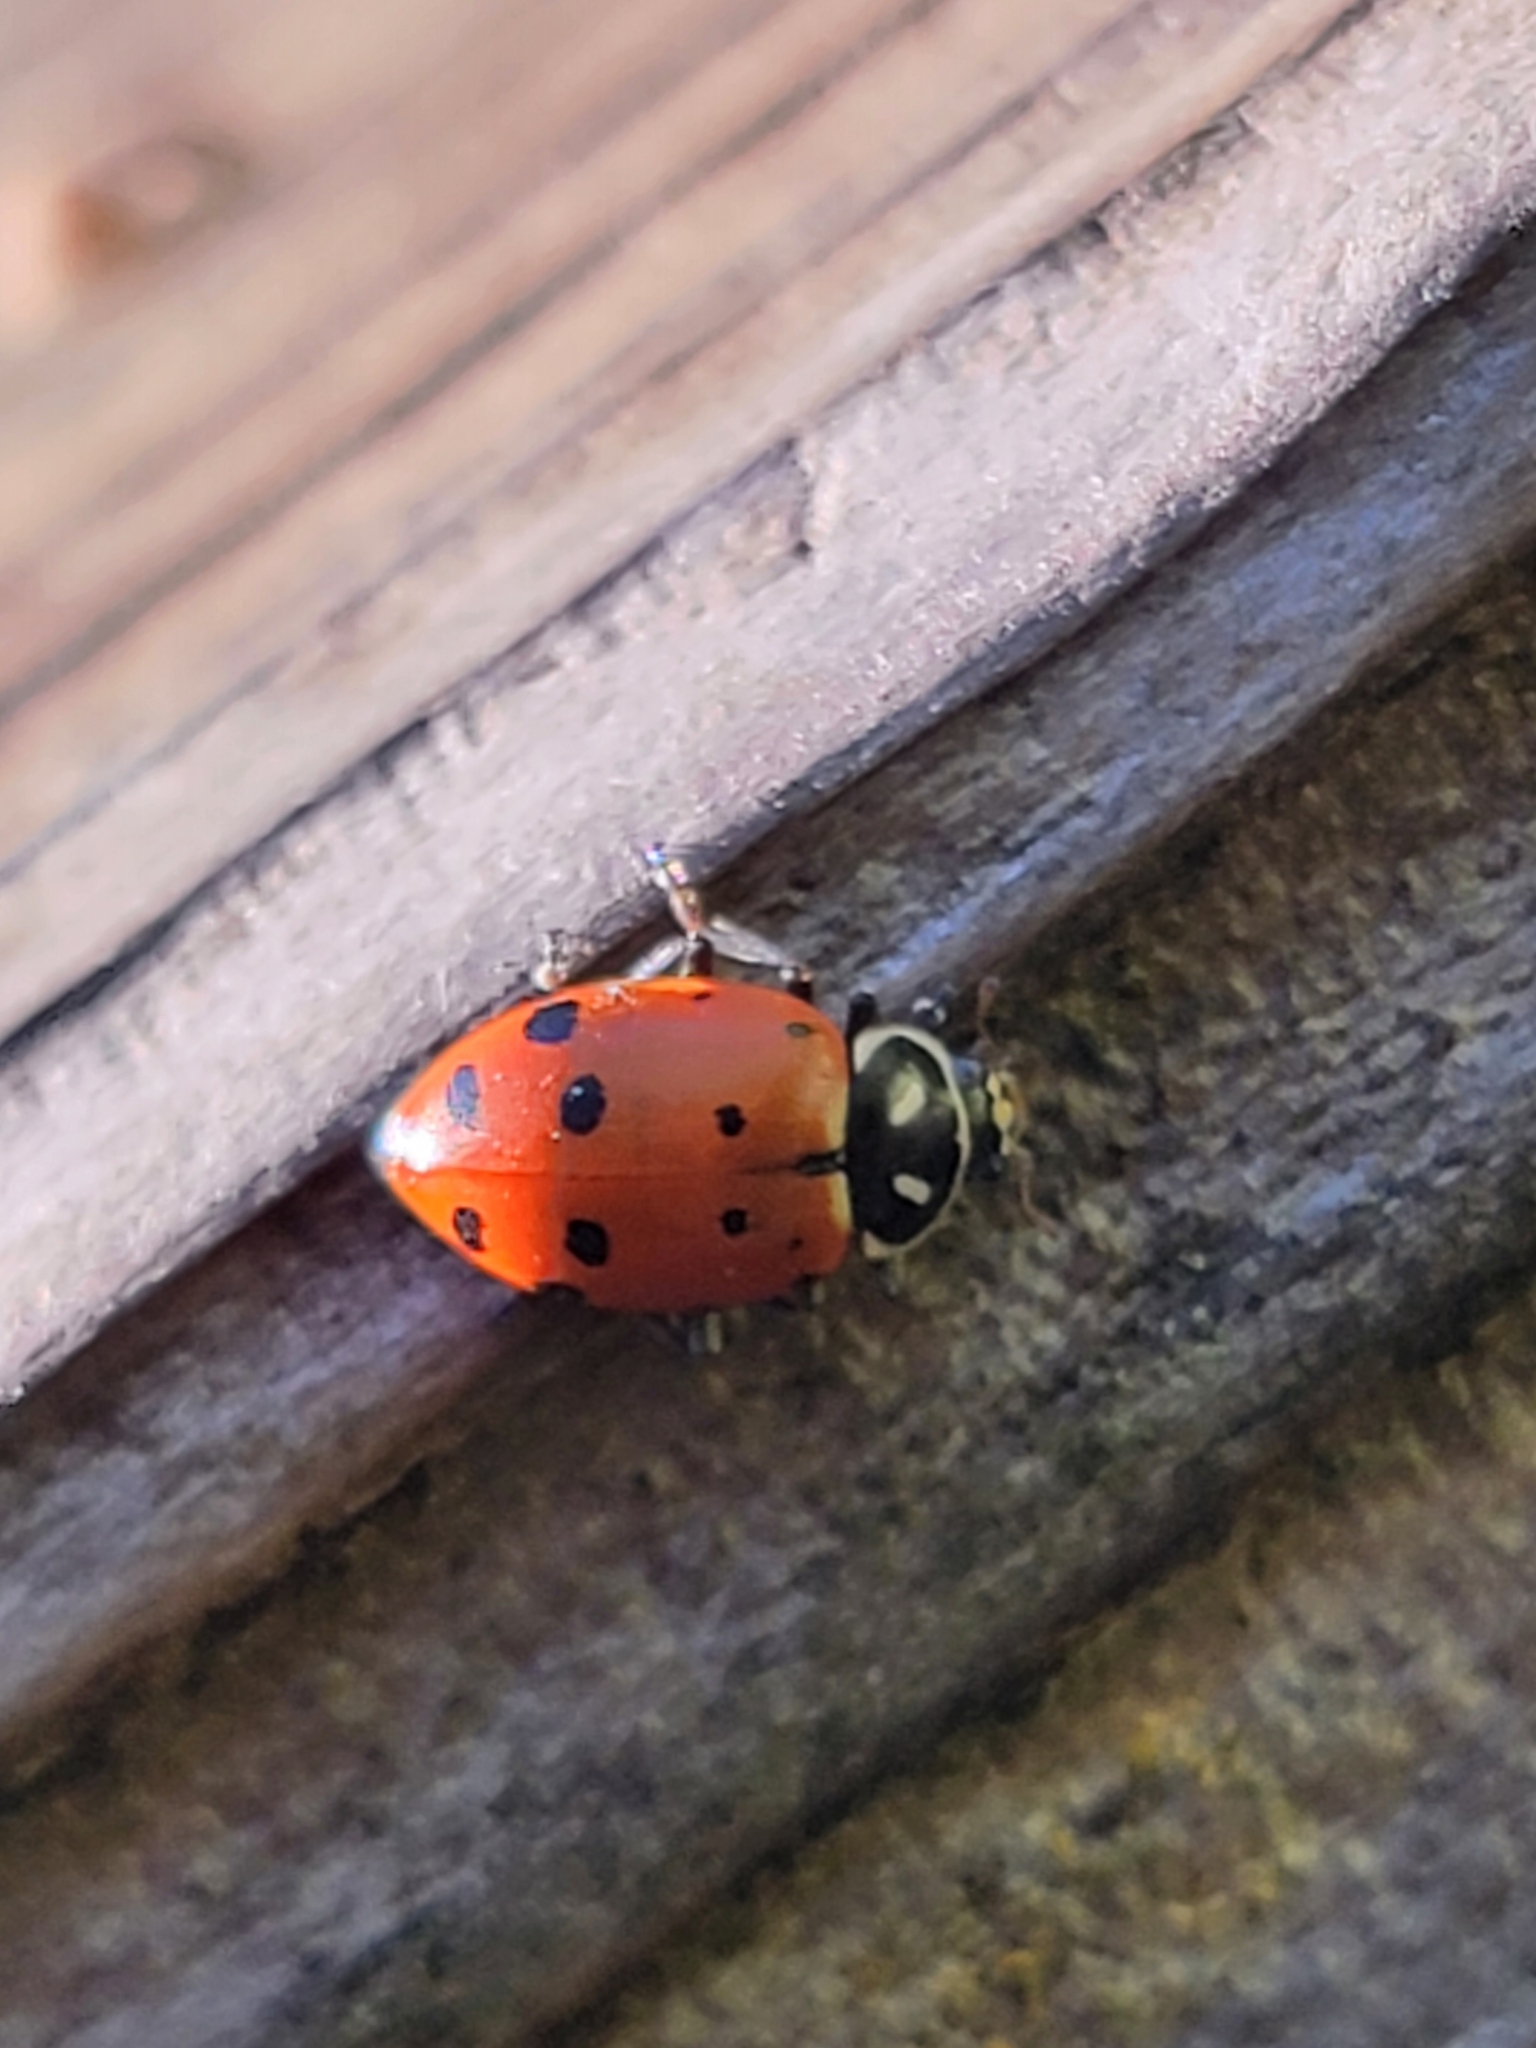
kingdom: Animalia
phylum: Arthropoda
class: Insecta
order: Coleoptera
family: Coccinellidae
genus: Hippodamia
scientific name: Hippodamia convergens
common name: Convergent lady beetle
